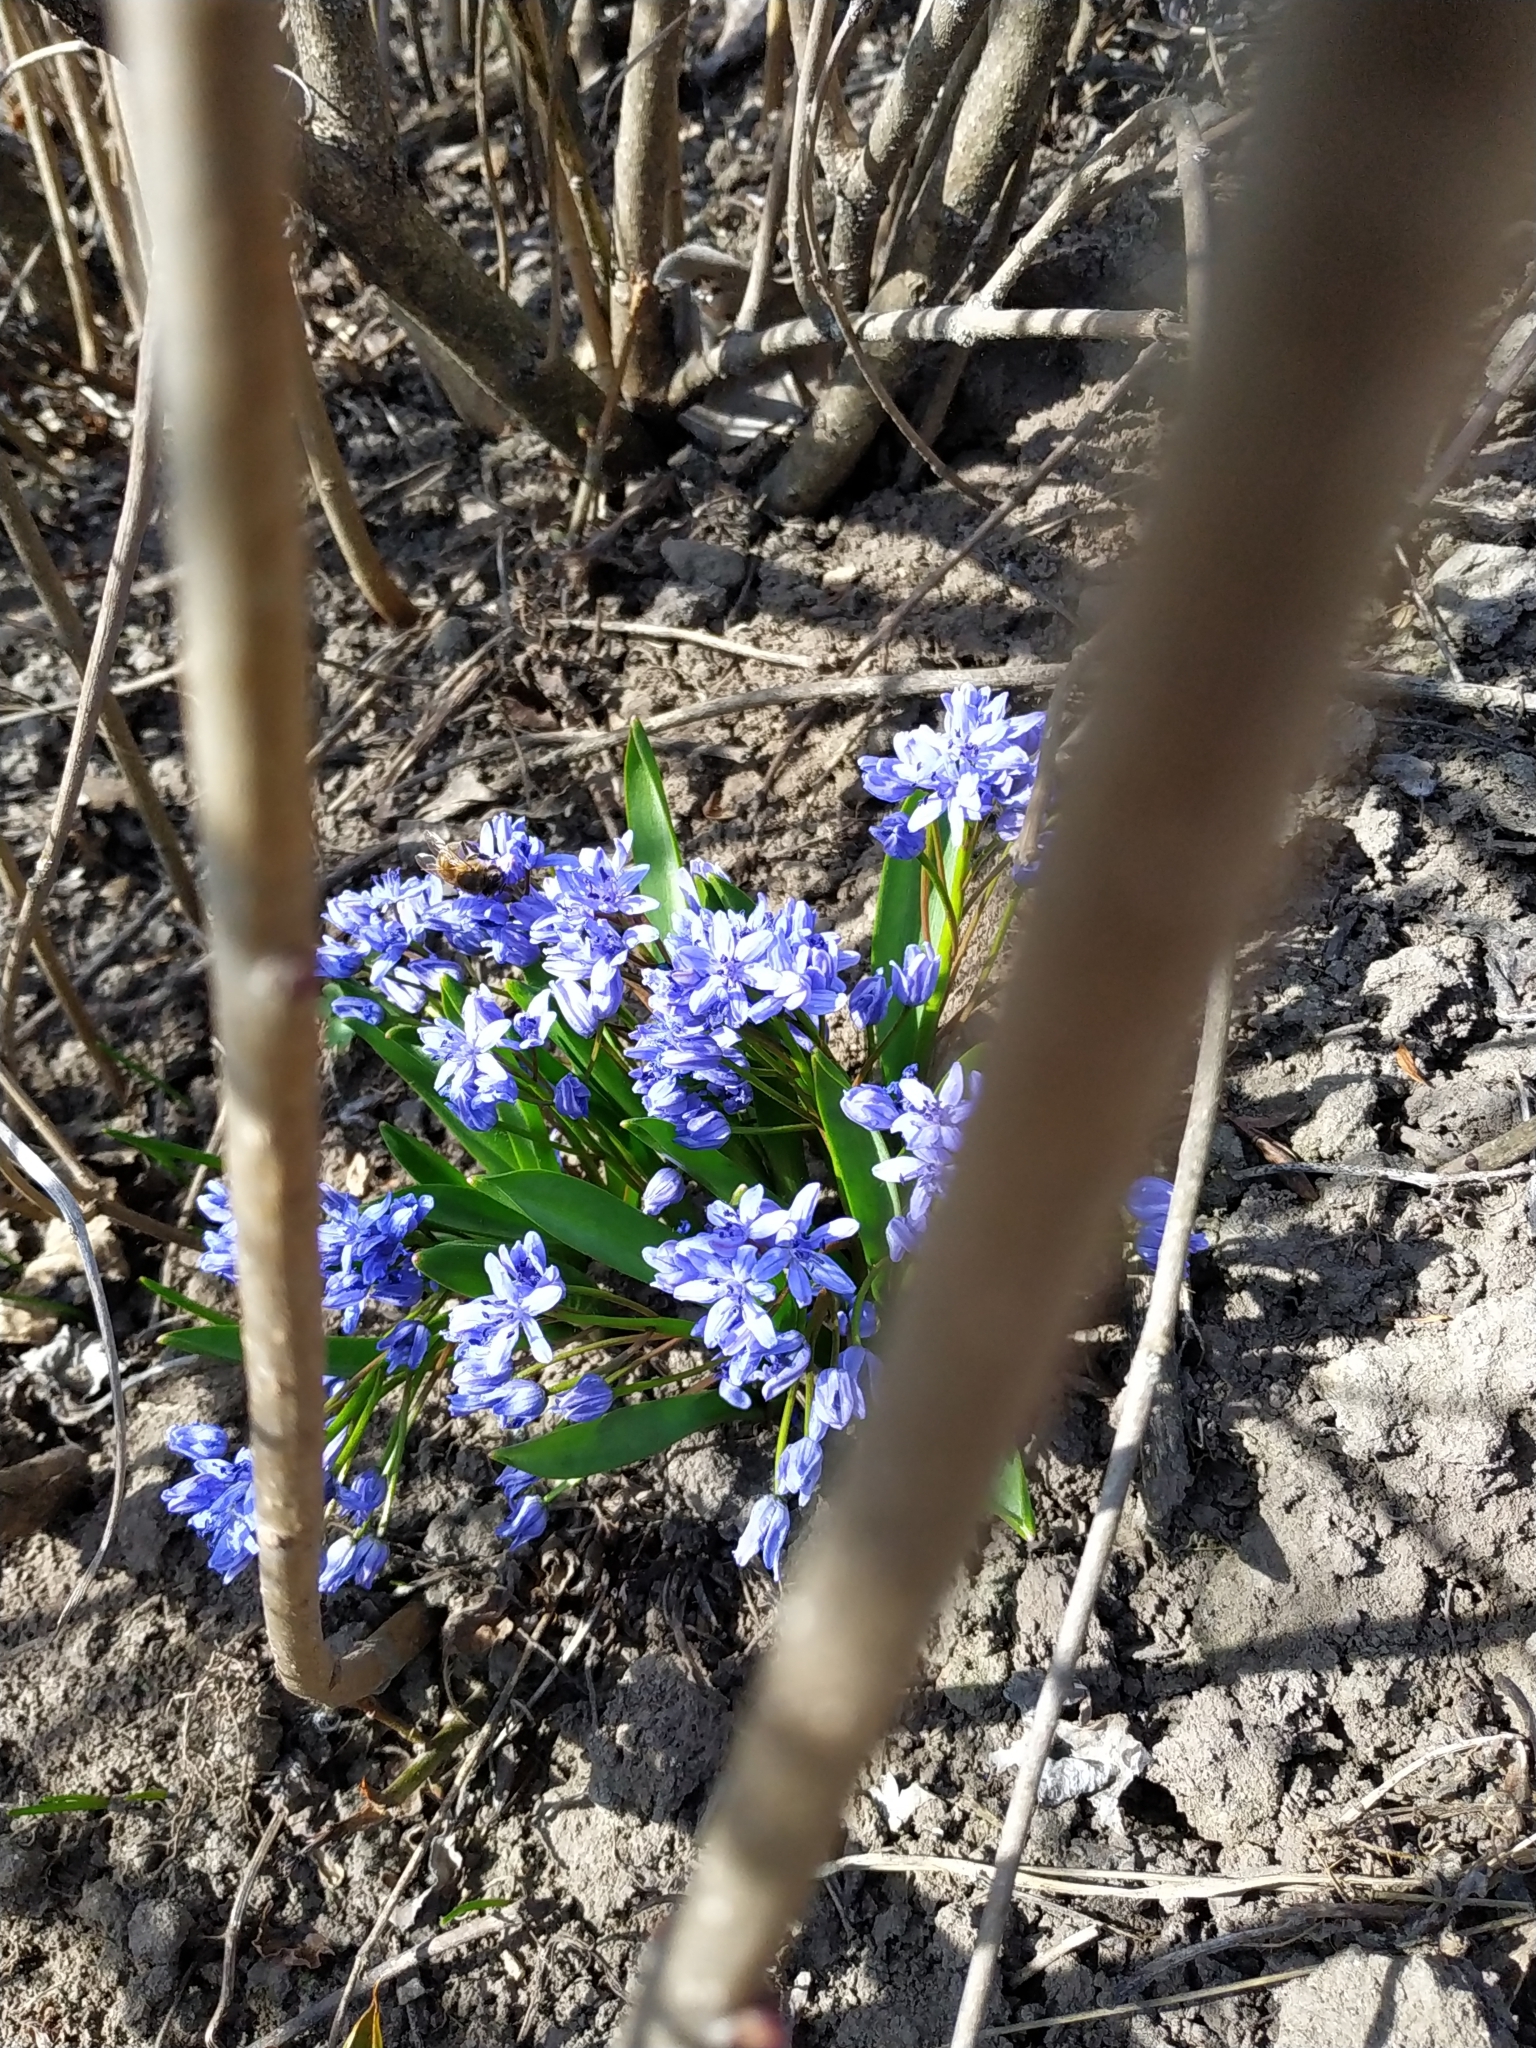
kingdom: Plantae
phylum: Tracheophyta
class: Liliopsida
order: Asparagales
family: Asparagaceae
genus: Scilla
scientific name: Scilla bifolia
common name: Alpine squill
